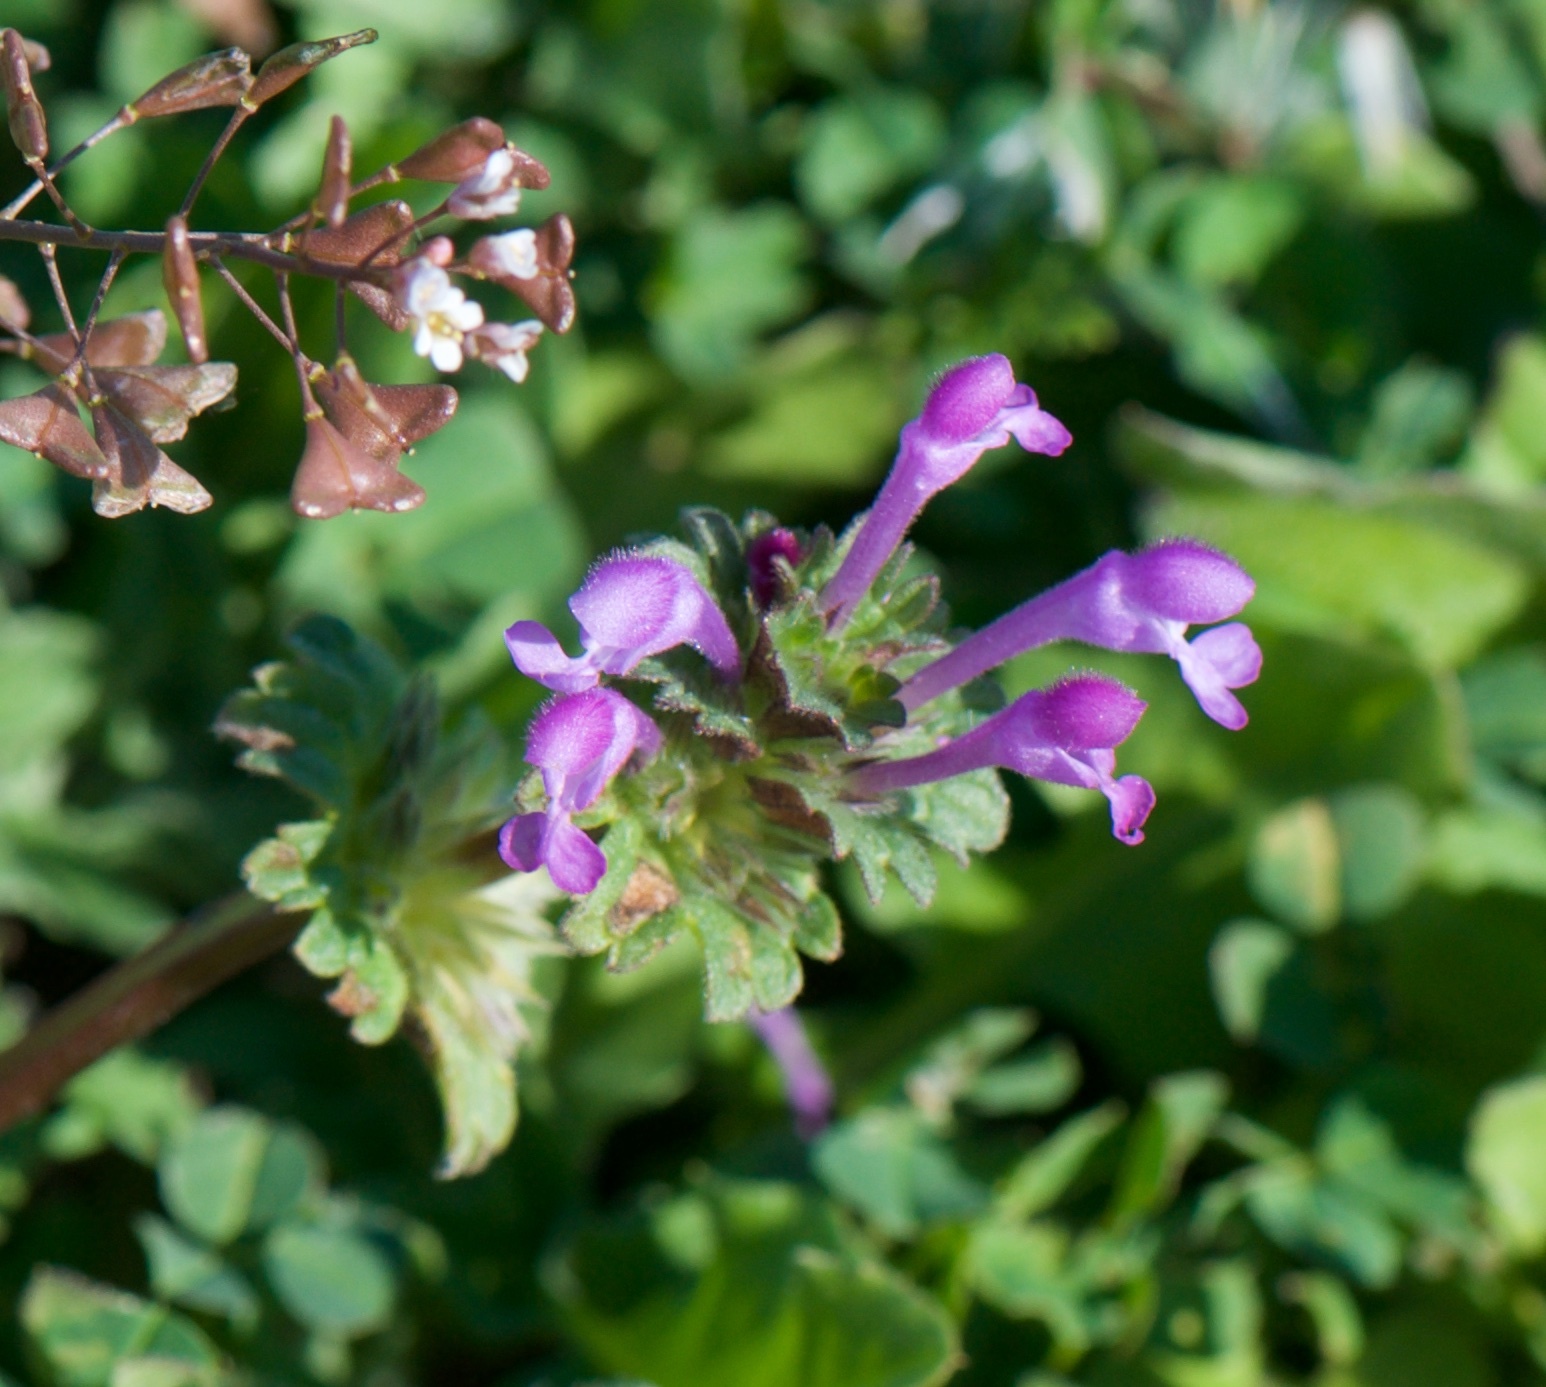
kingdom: Plantae
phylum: Tracheophyta
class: Magnoliopsida
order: Lamiales
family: Lamiaceae
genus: Lamium
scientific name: Lamium amplexicaule
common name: Henbit dead-nettle
